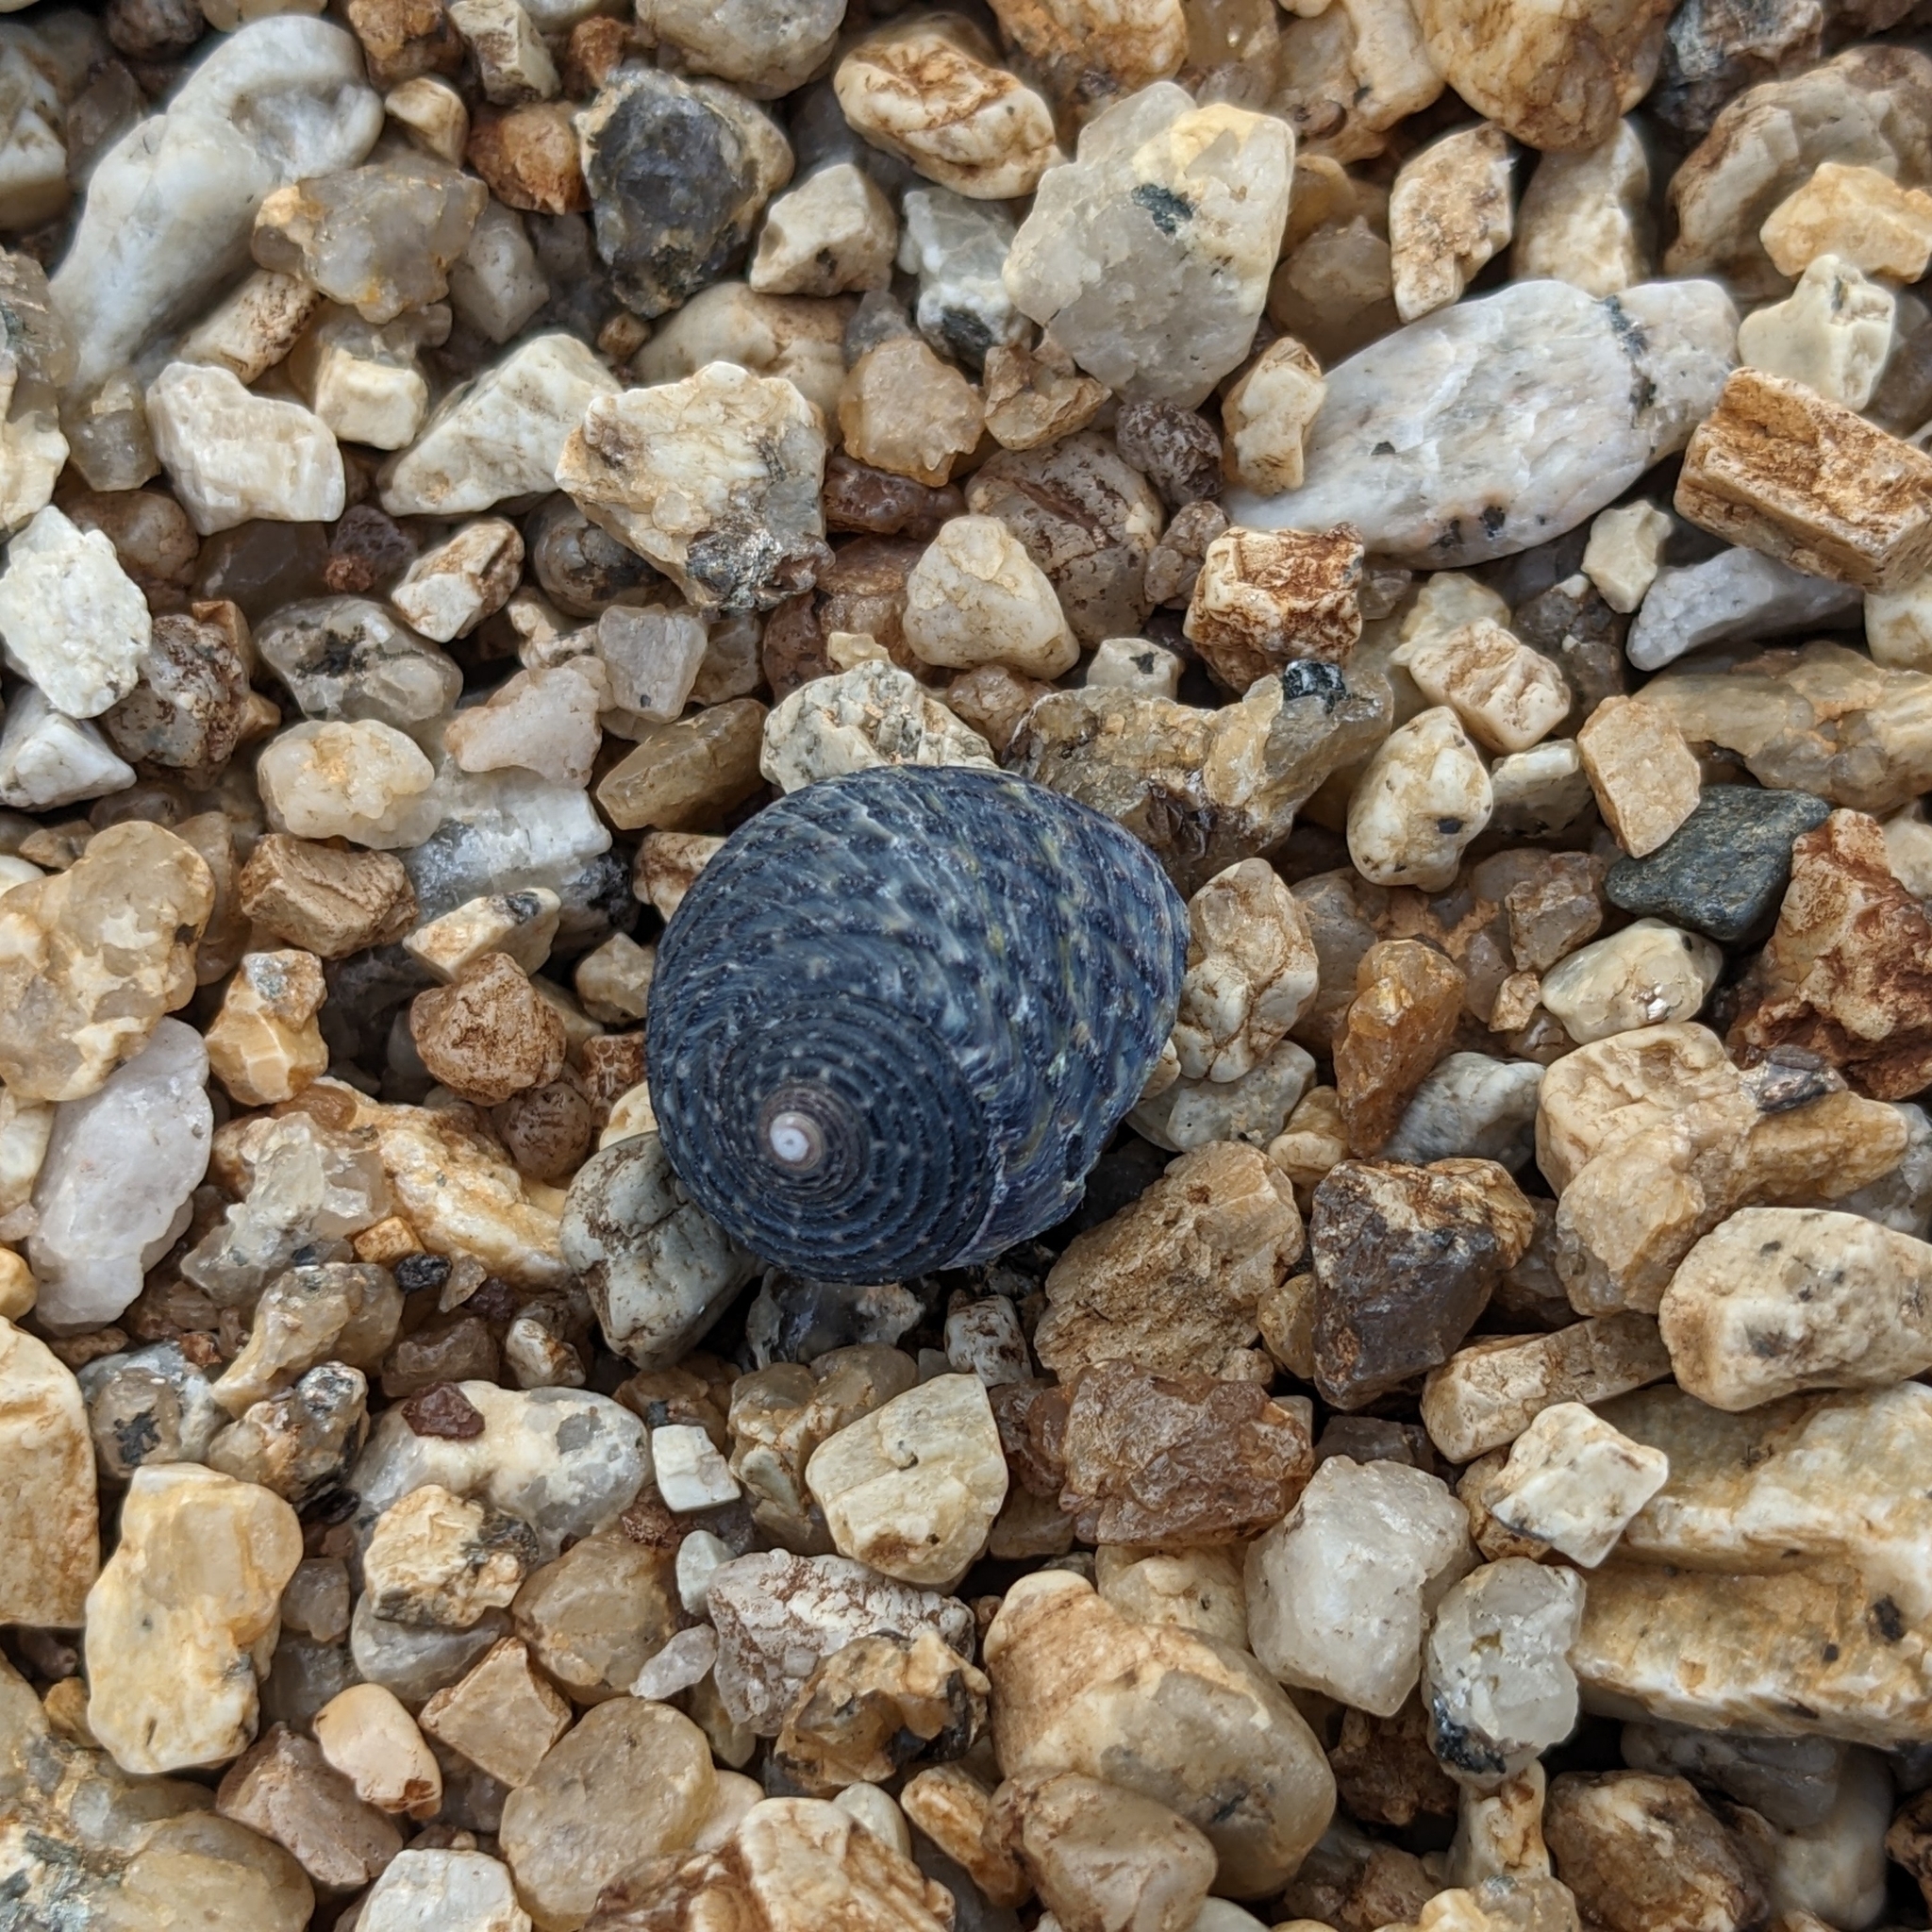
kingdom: Animalia
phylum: Mollusca
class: Gastropoda
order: Trochida
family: Trochidae
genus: Diloma
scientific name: Diloma concameratum
